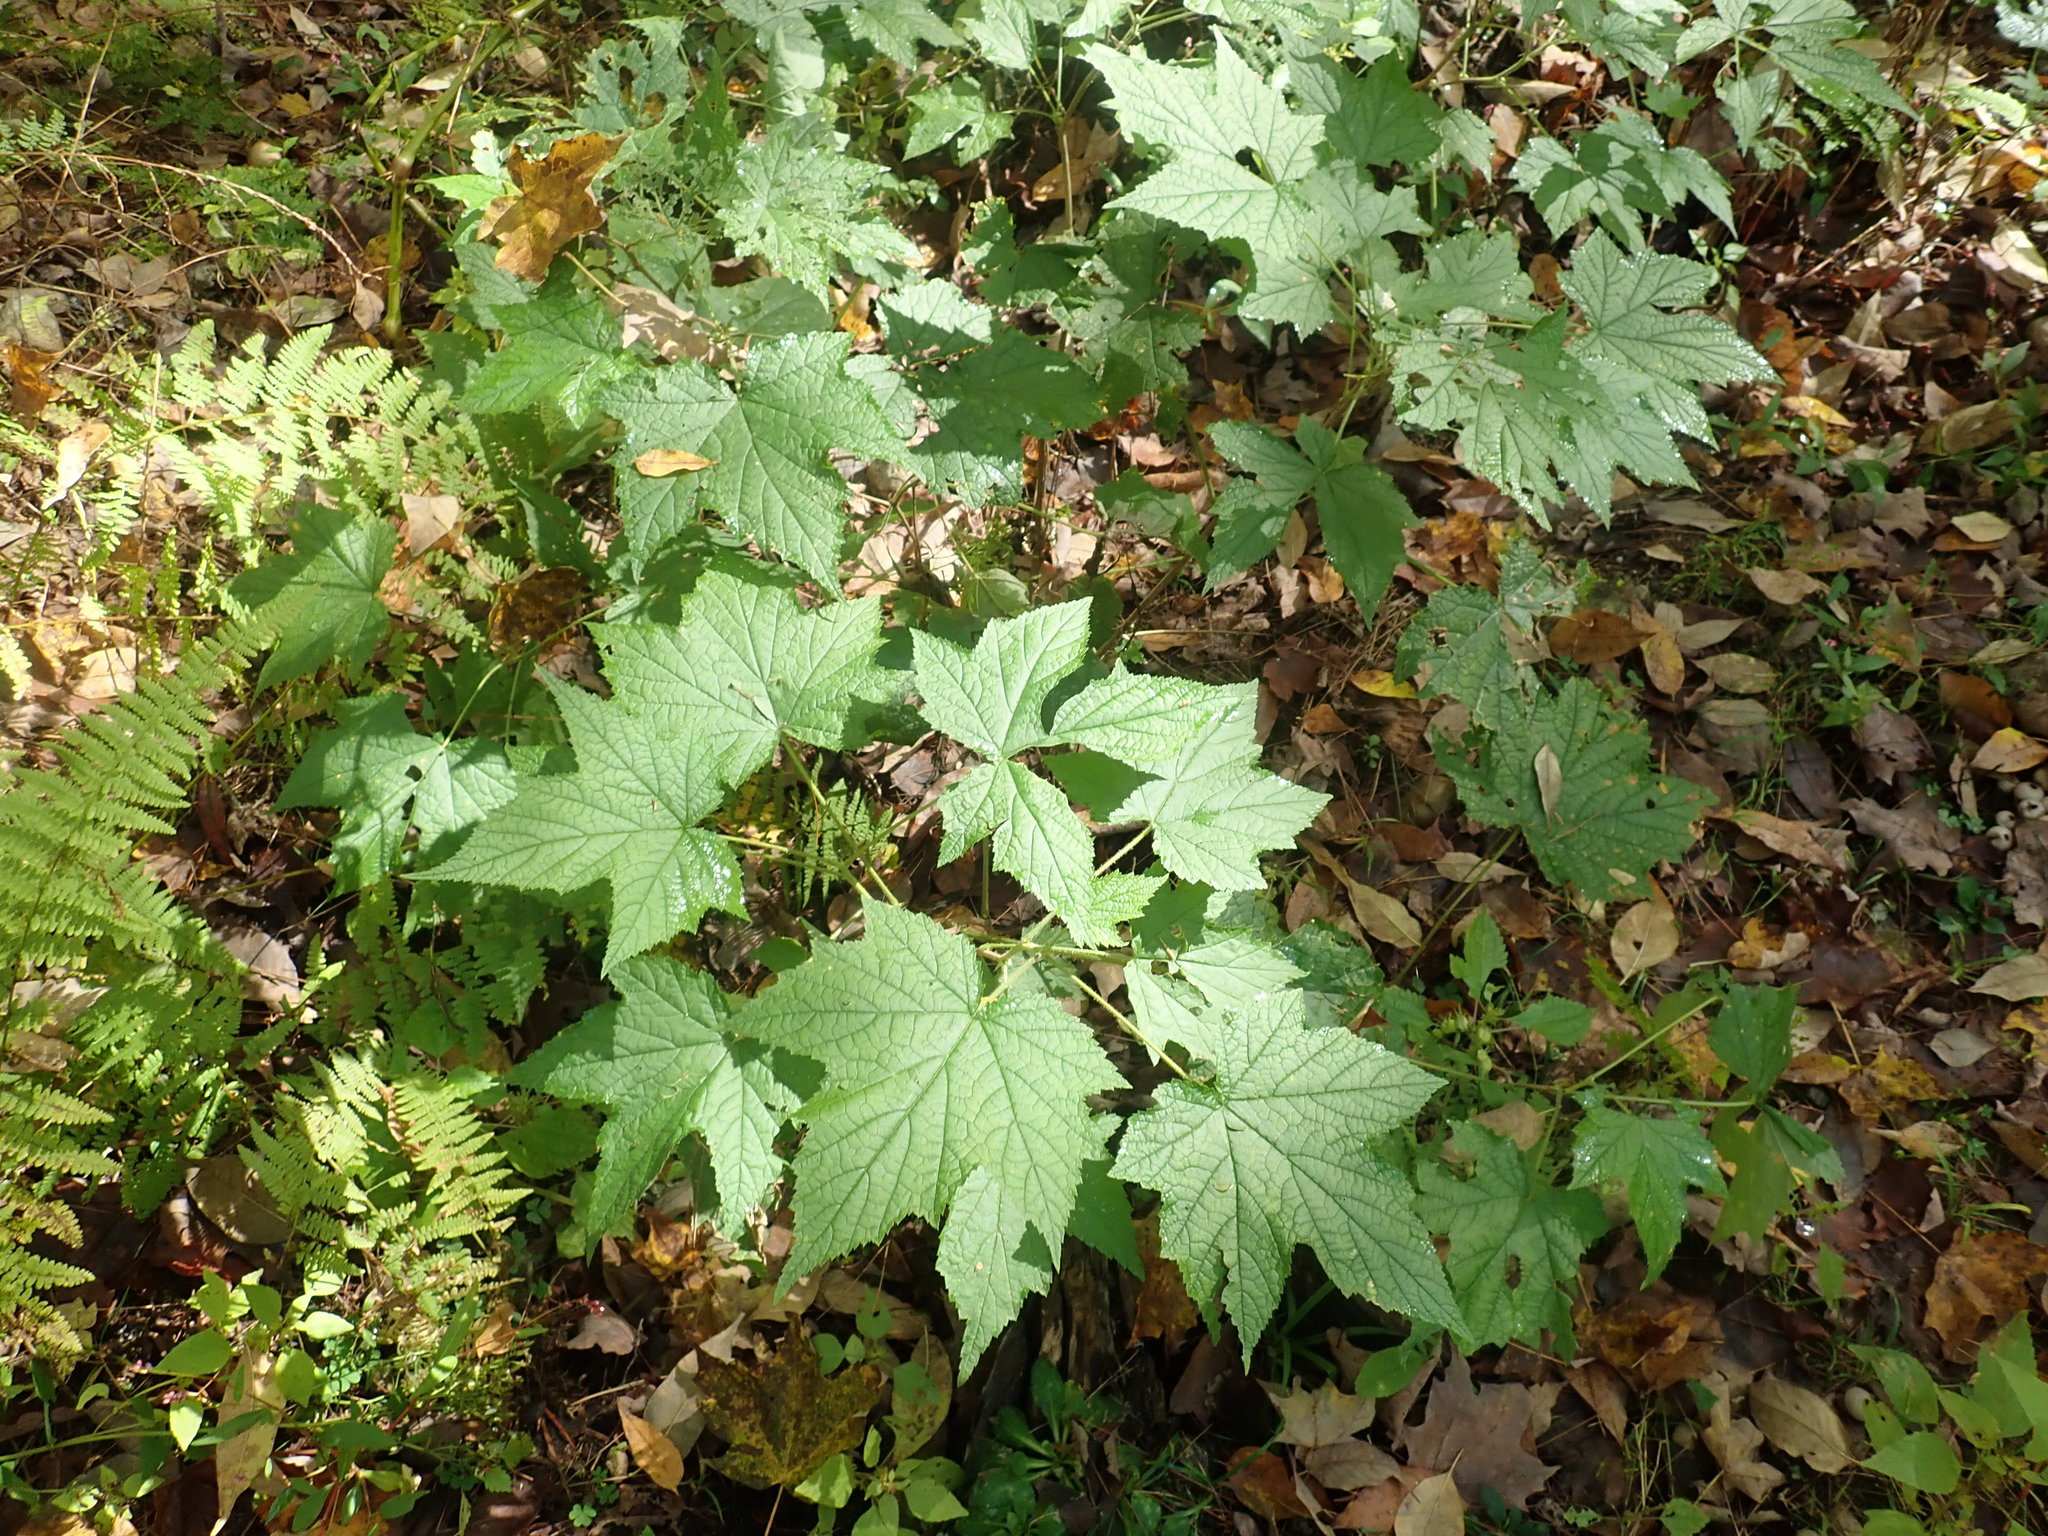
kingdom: Plantae
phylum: Tracheophyta
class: Magnoliopsida
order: Rosales
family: Rosaceae
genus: Rubus
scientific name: Rubus odoratus
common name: Purple-flowered raspberry
